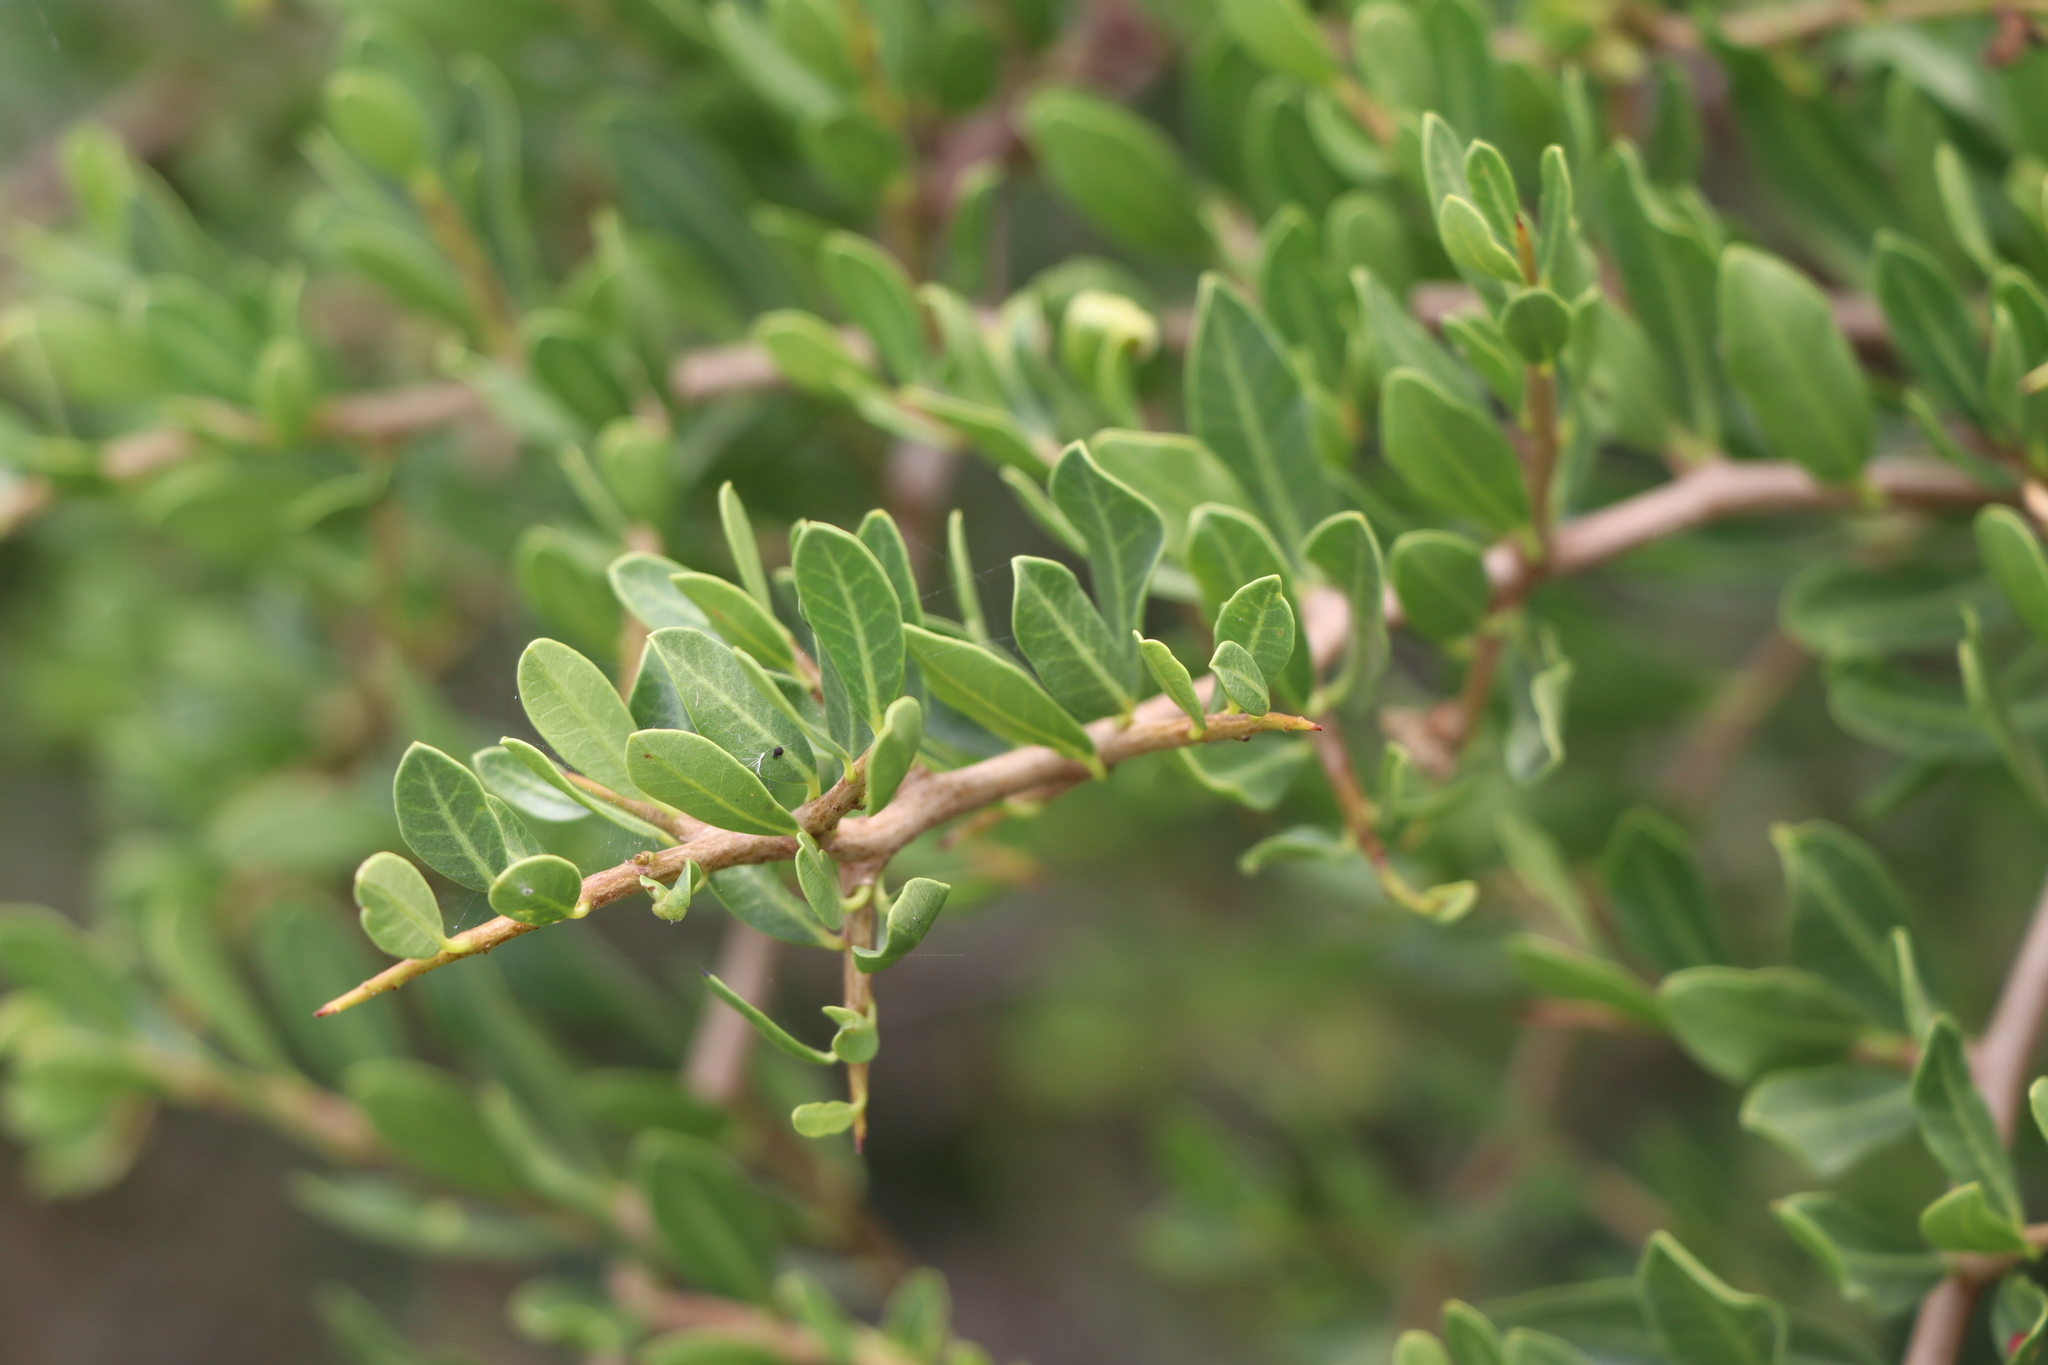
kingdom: Plantae
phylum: Tracheophyta
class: Magnoliopsida
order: Sapindales
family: Anacardiaceae
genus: Schinus
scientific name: Schinus engleri
